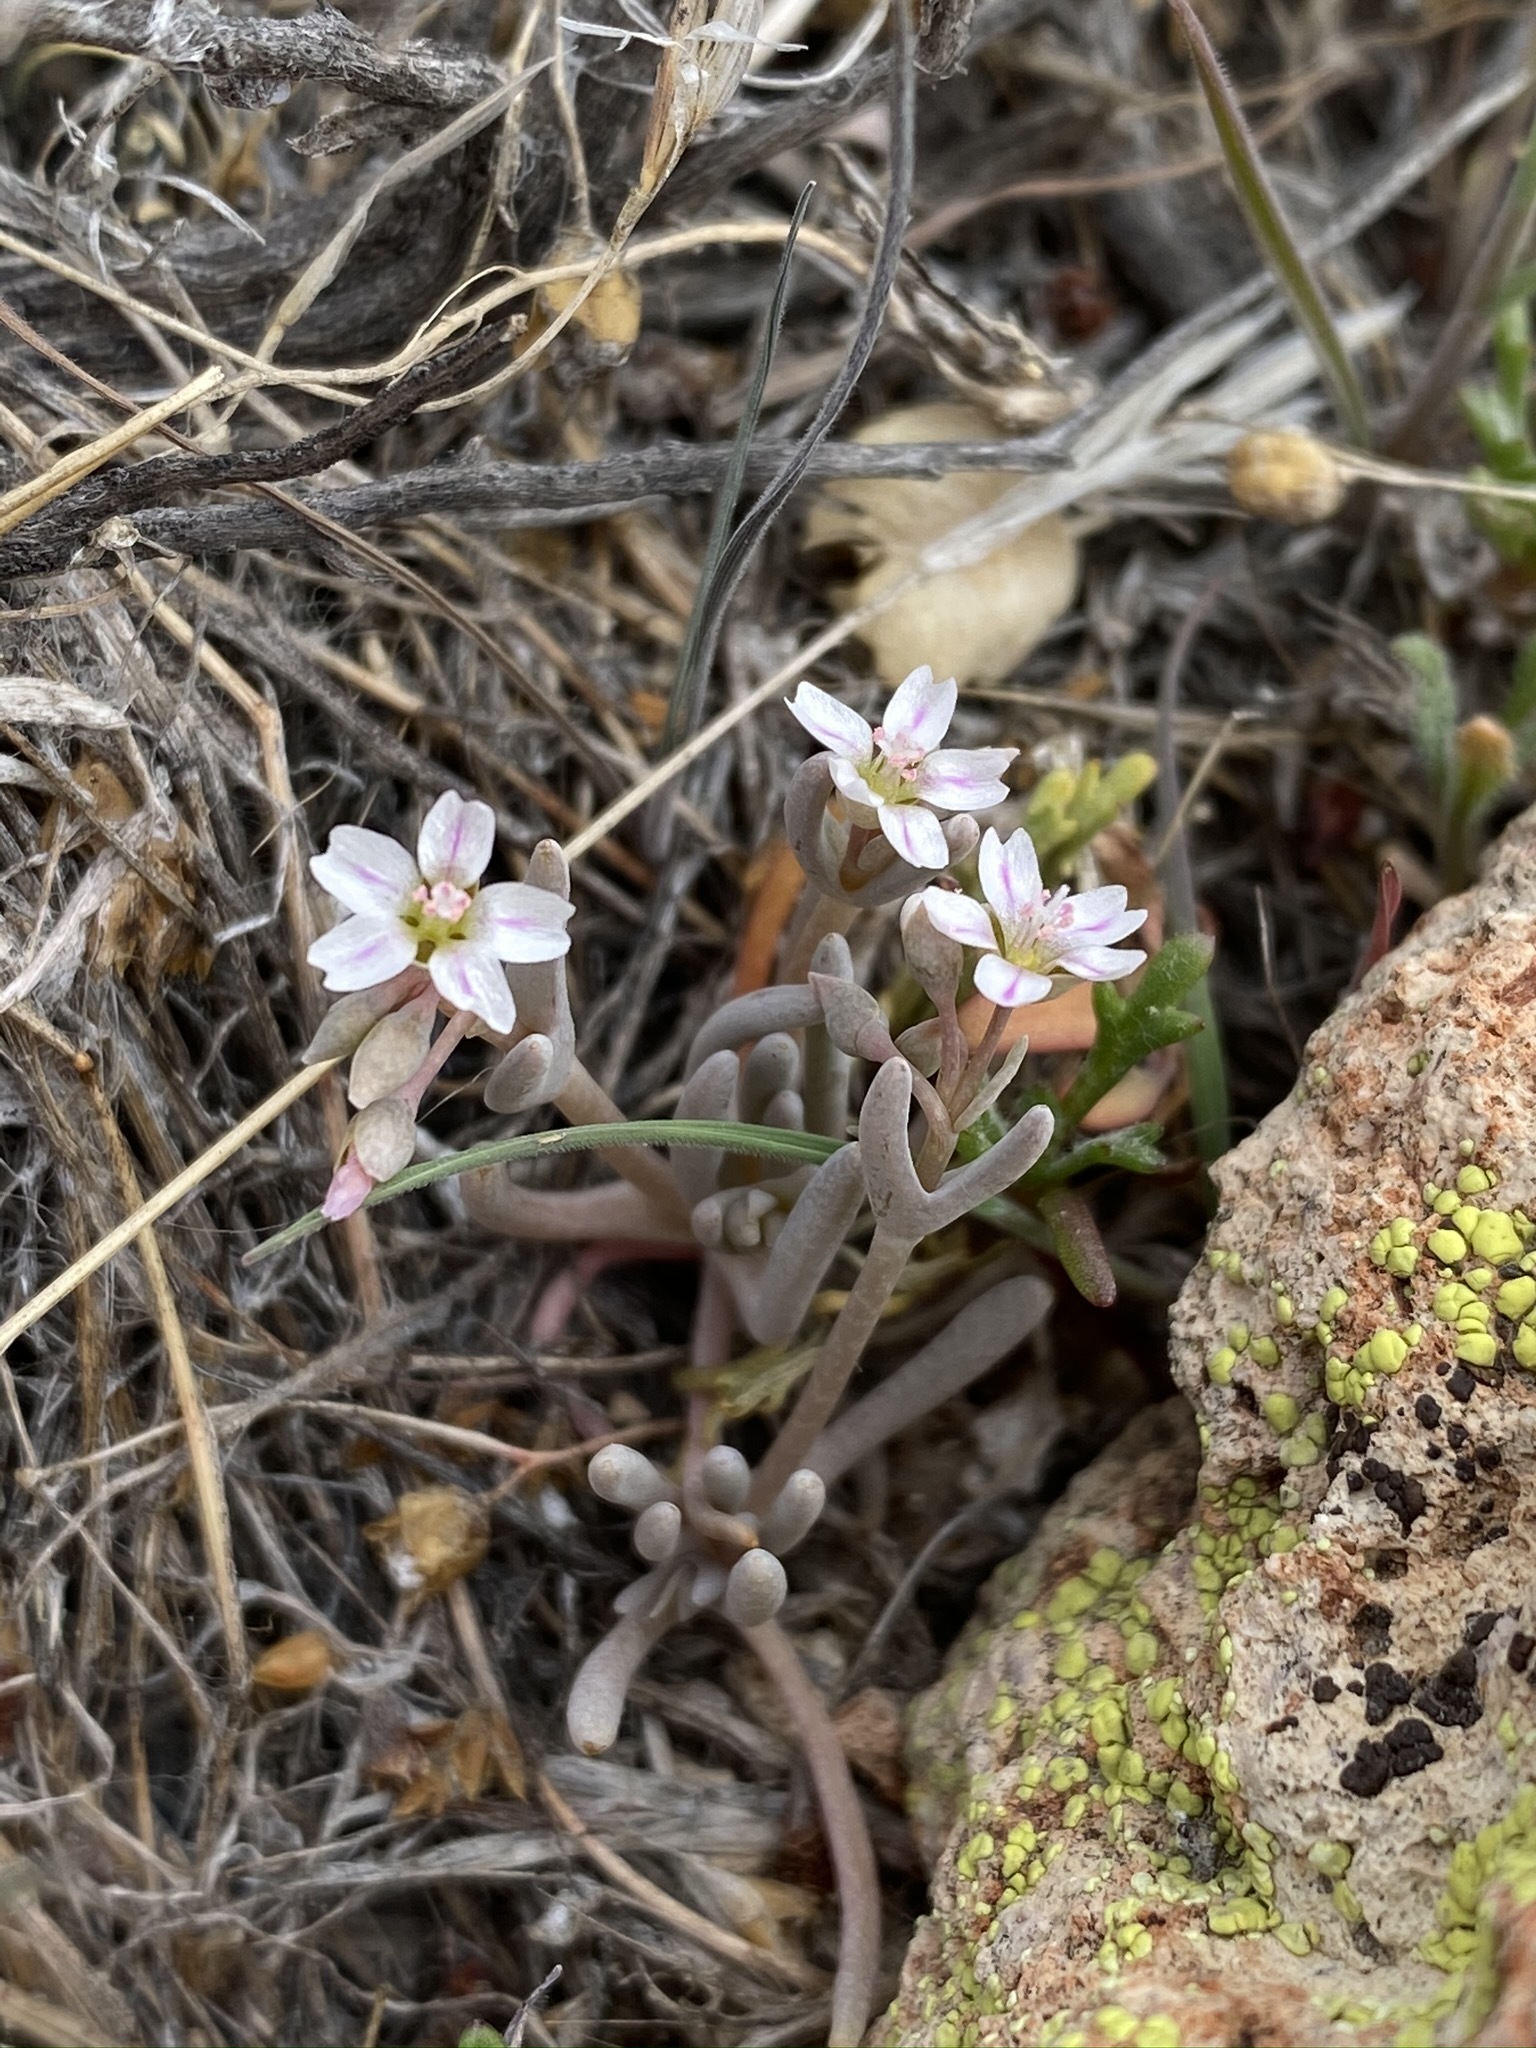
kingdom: Plantae
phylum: Tracheophyta
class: Magnoliopsida
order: Caryophyllales
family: Montiaceae
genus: Claytonia
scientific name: Claytonia exigua
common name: Pale spring beauty
